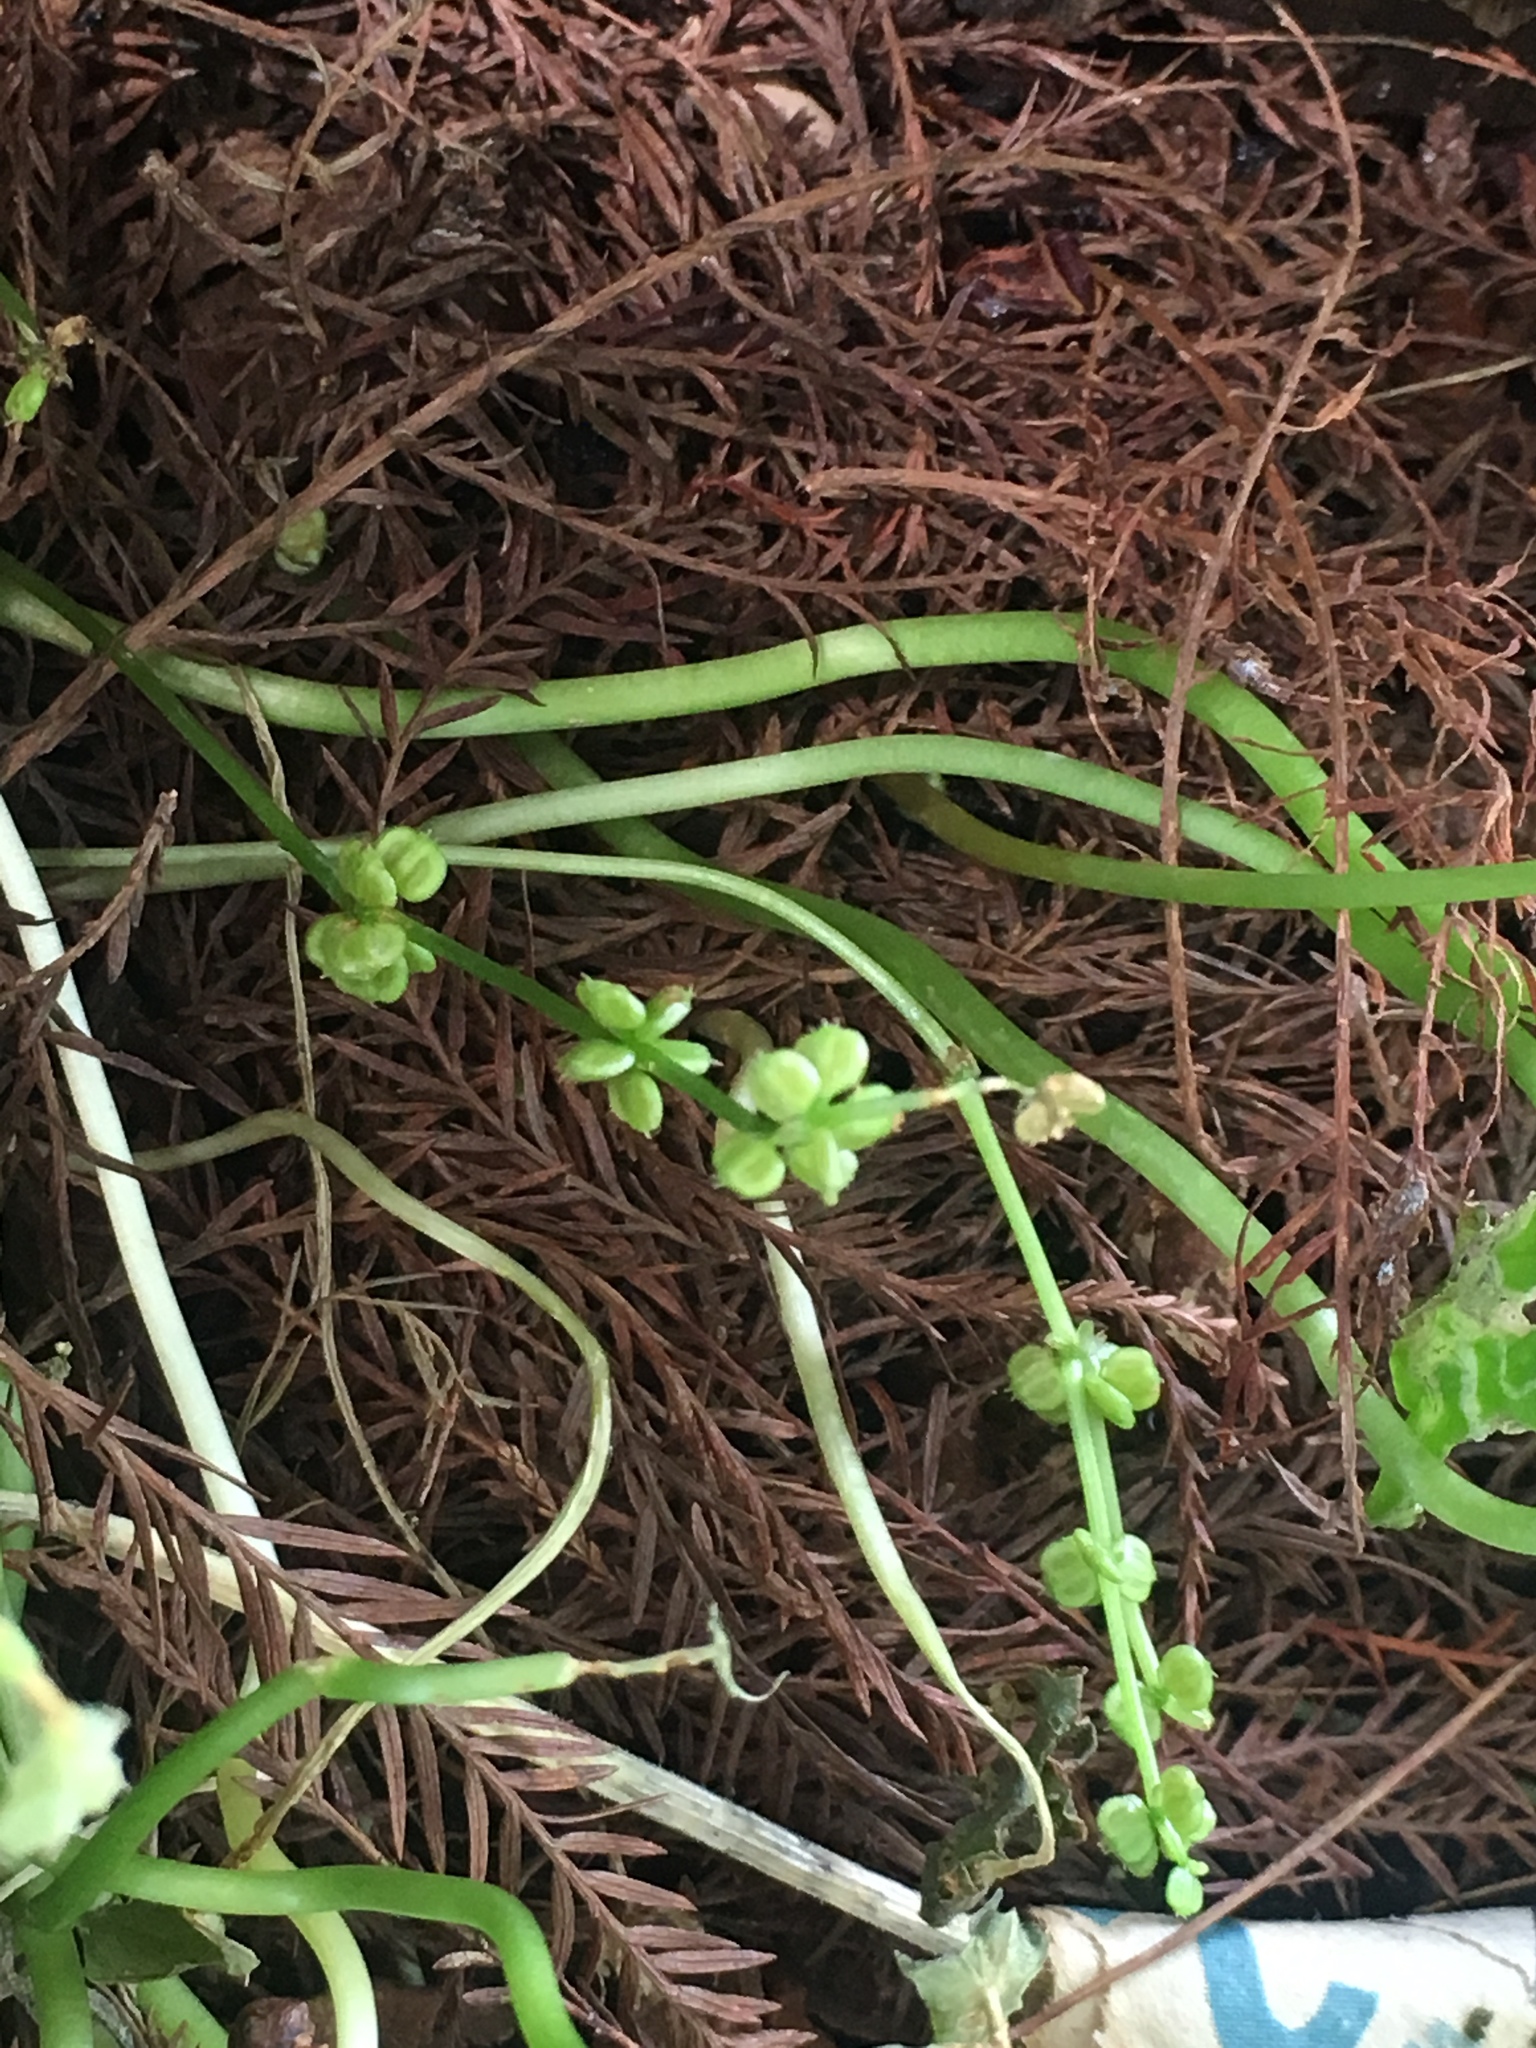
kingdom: Plantae
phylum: Tracheophyta
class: Magnoliopsida
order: Apiales
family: Araliaceae
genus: Hydrocotyle
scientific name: Hydrocotyle verticillata
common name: Whorled marshpennywort
